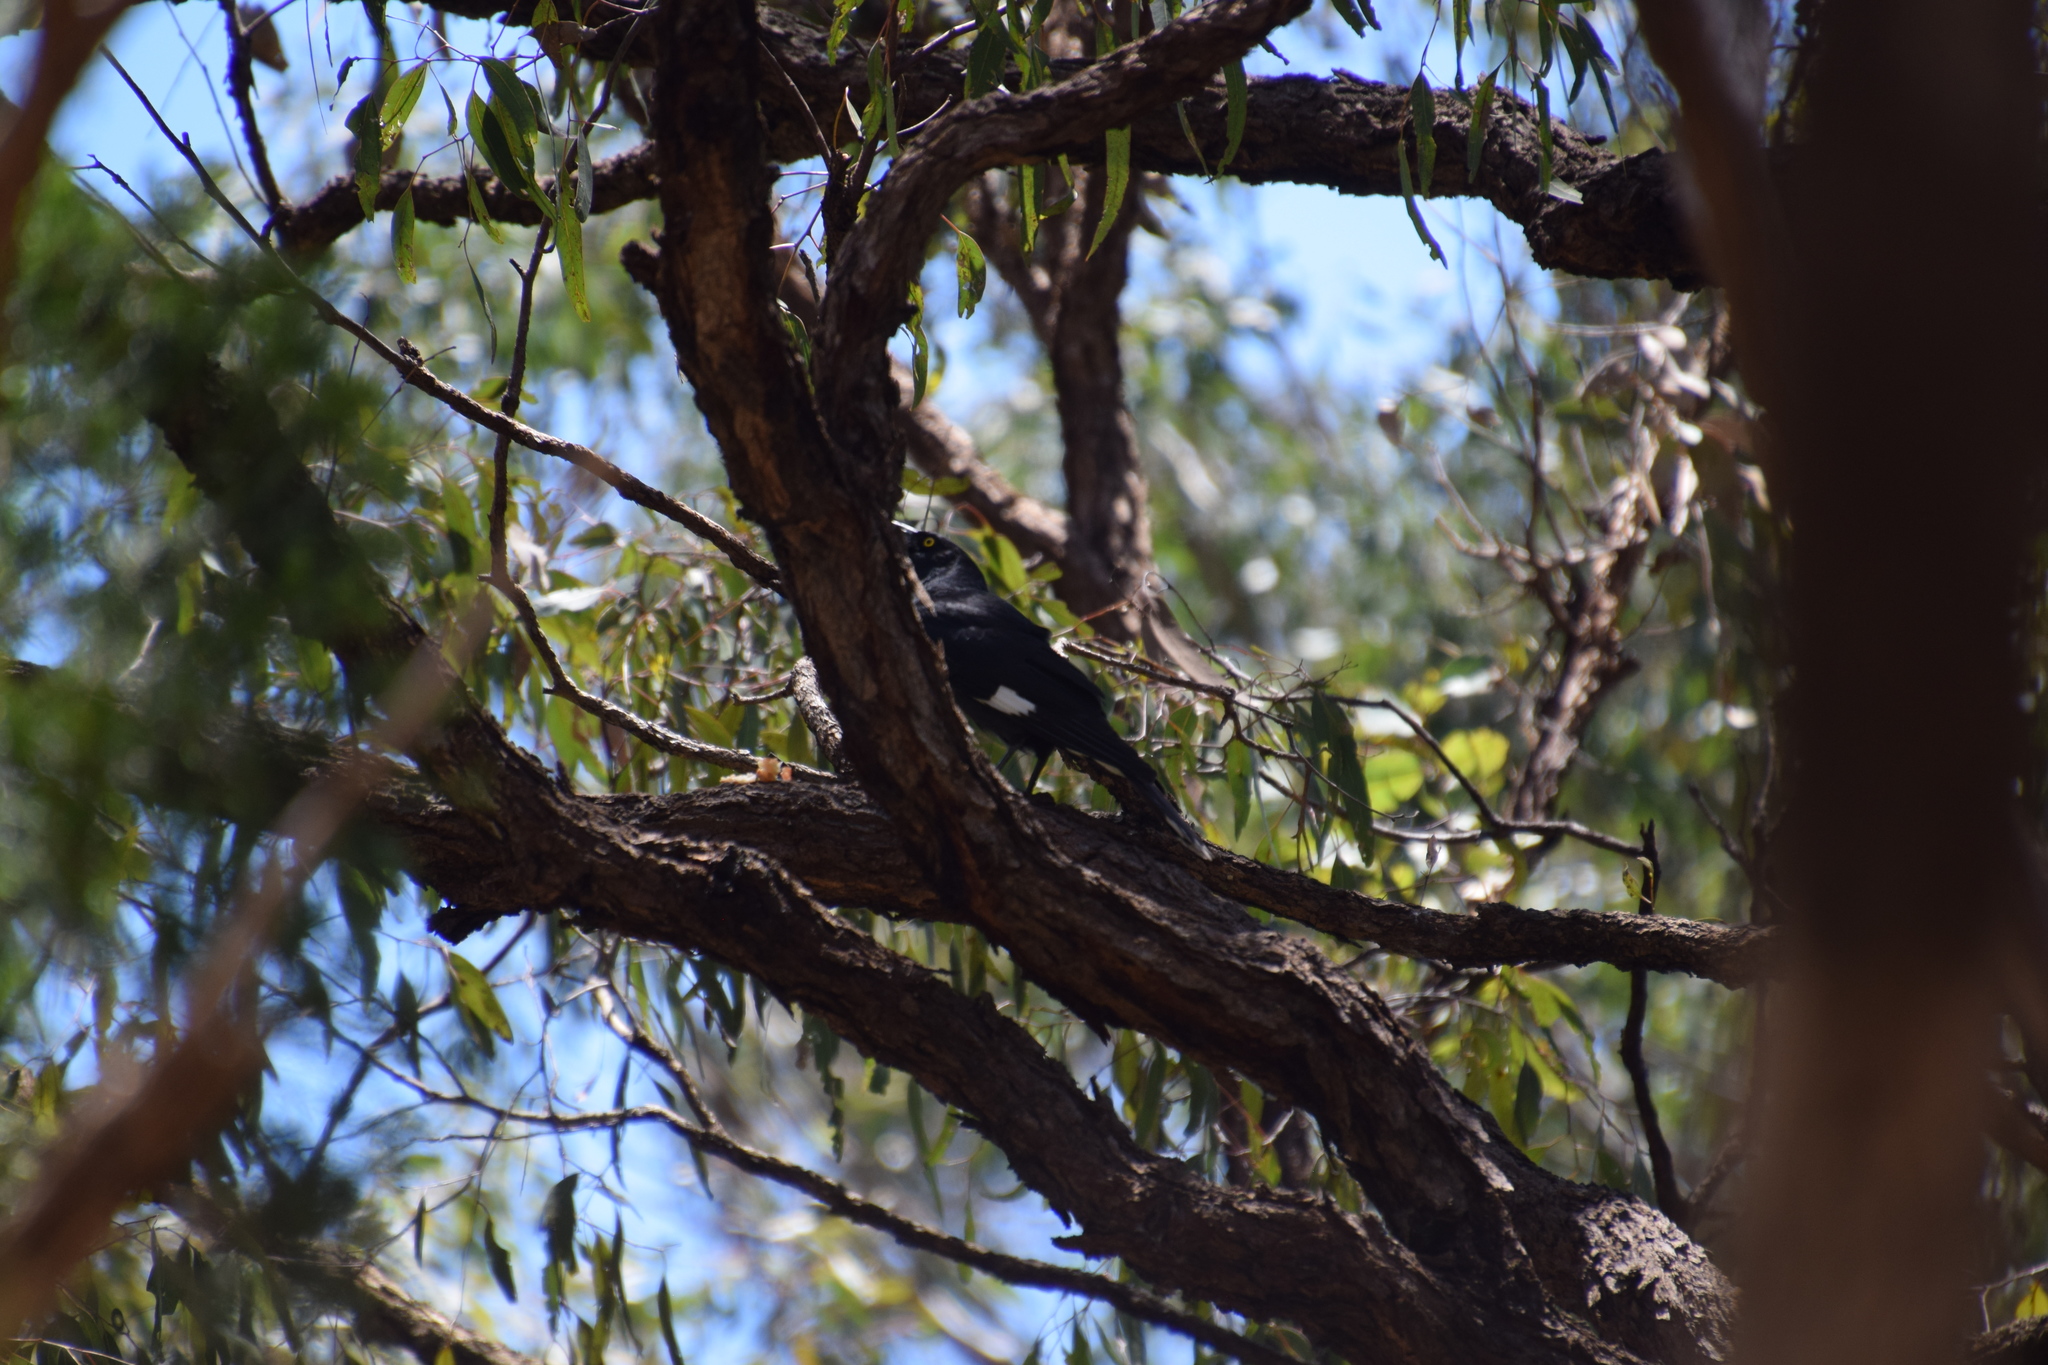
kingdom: Animalia
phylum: Chordata
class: Aves
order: Passeriformes
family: Cracticidae
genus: Strepera
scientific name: Strepera graculina
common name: Pied currawong
